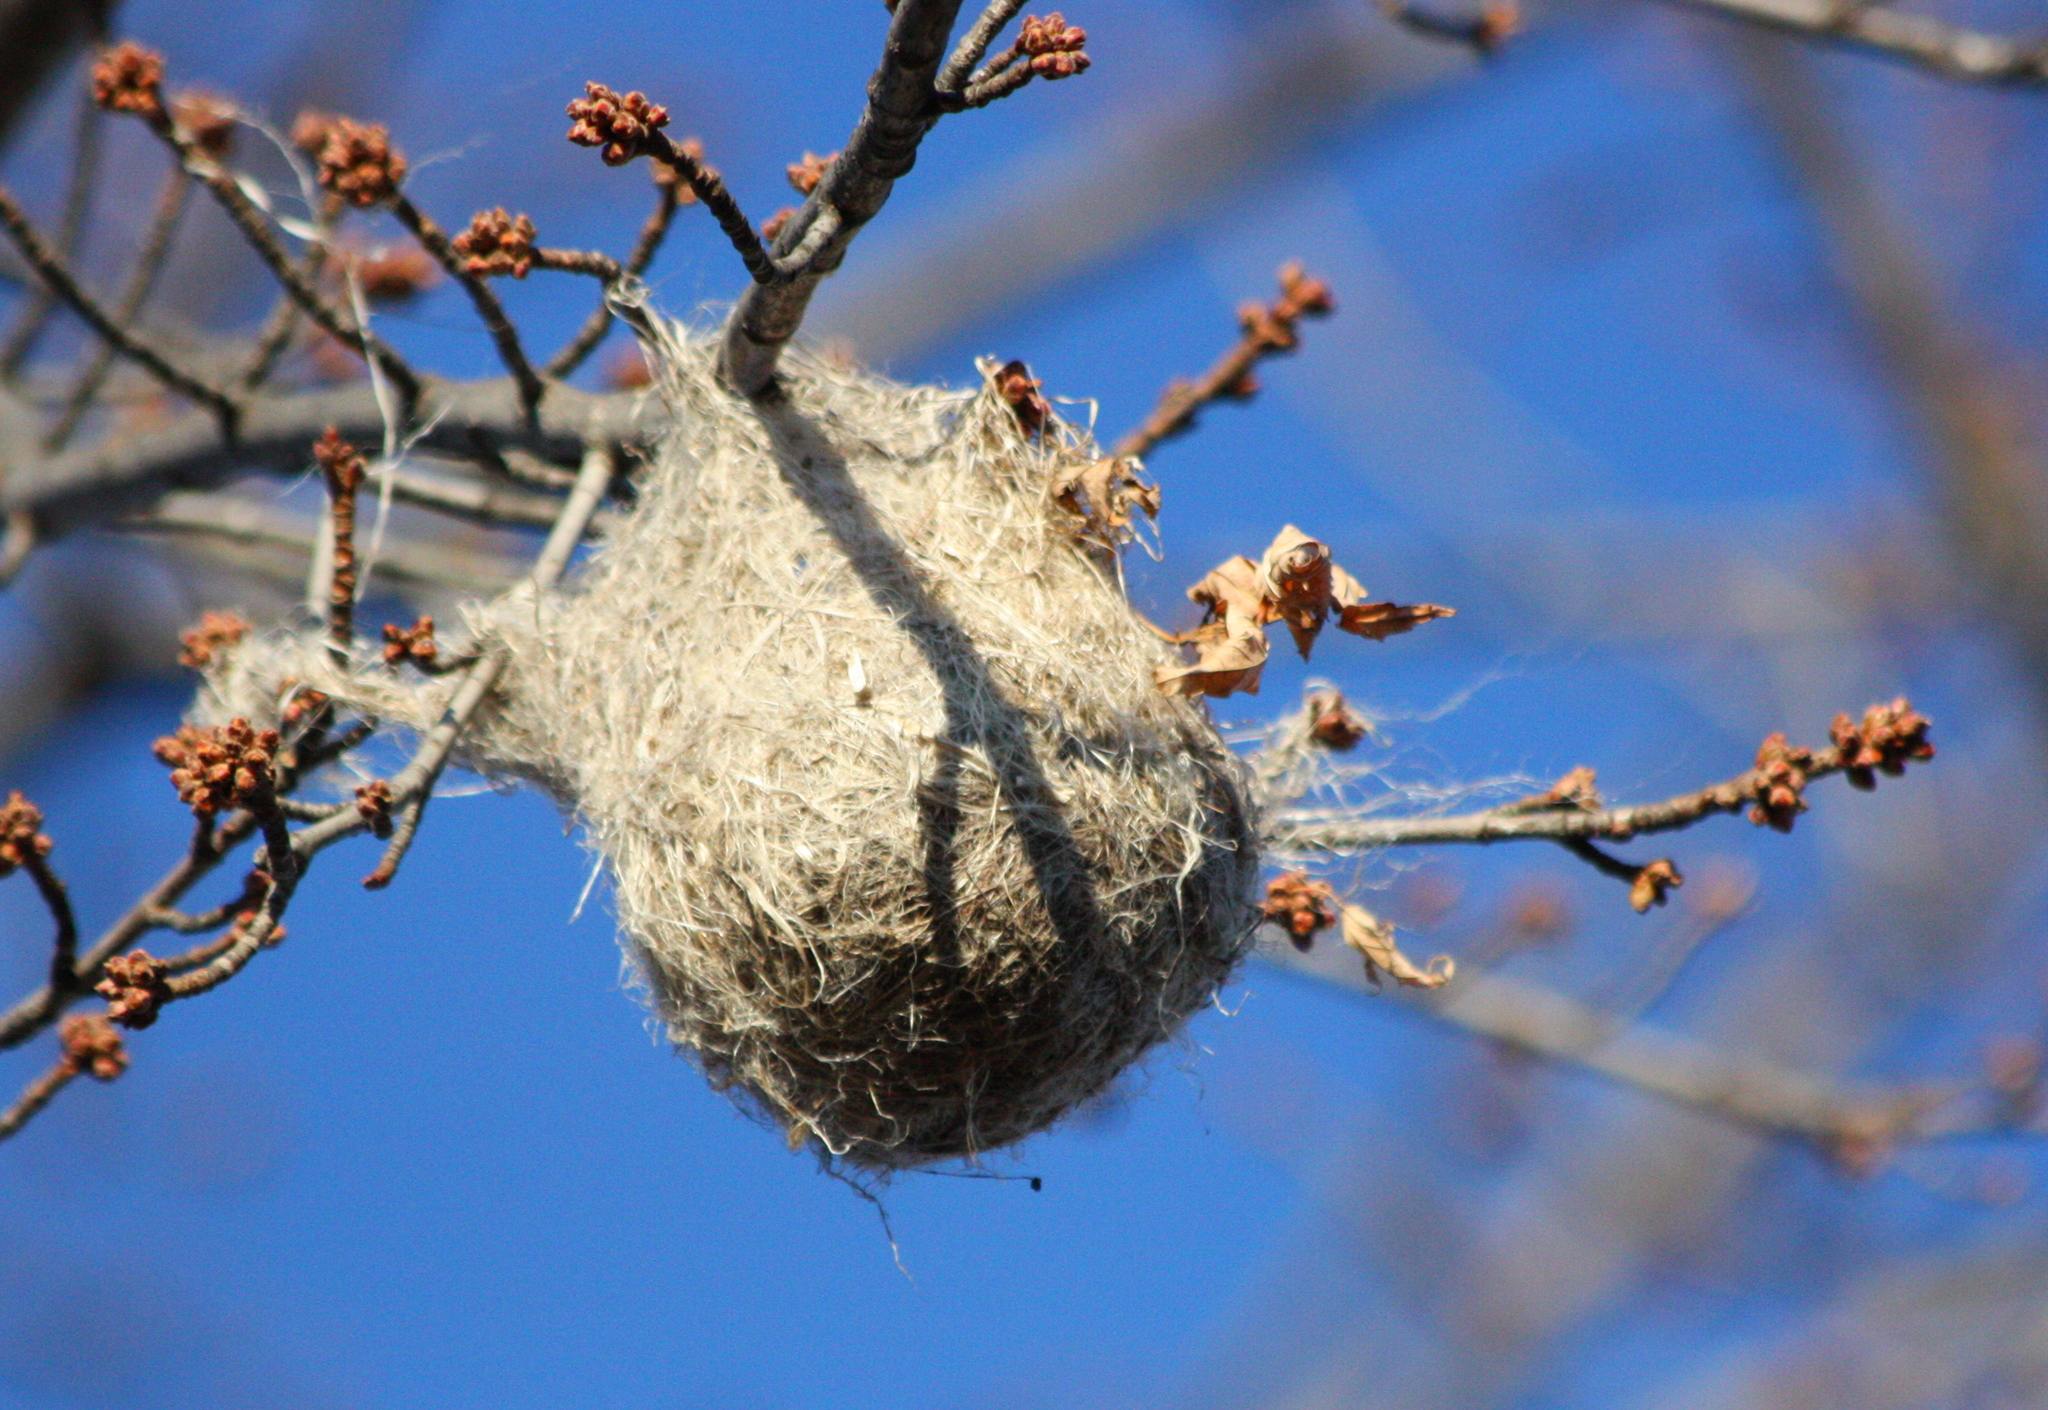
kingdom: Animalia
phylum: Chordata
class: Aves
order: Passeriformes
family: Icteridae
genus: Icterus
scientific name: Icterus galbula
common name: Baltimore oriole
